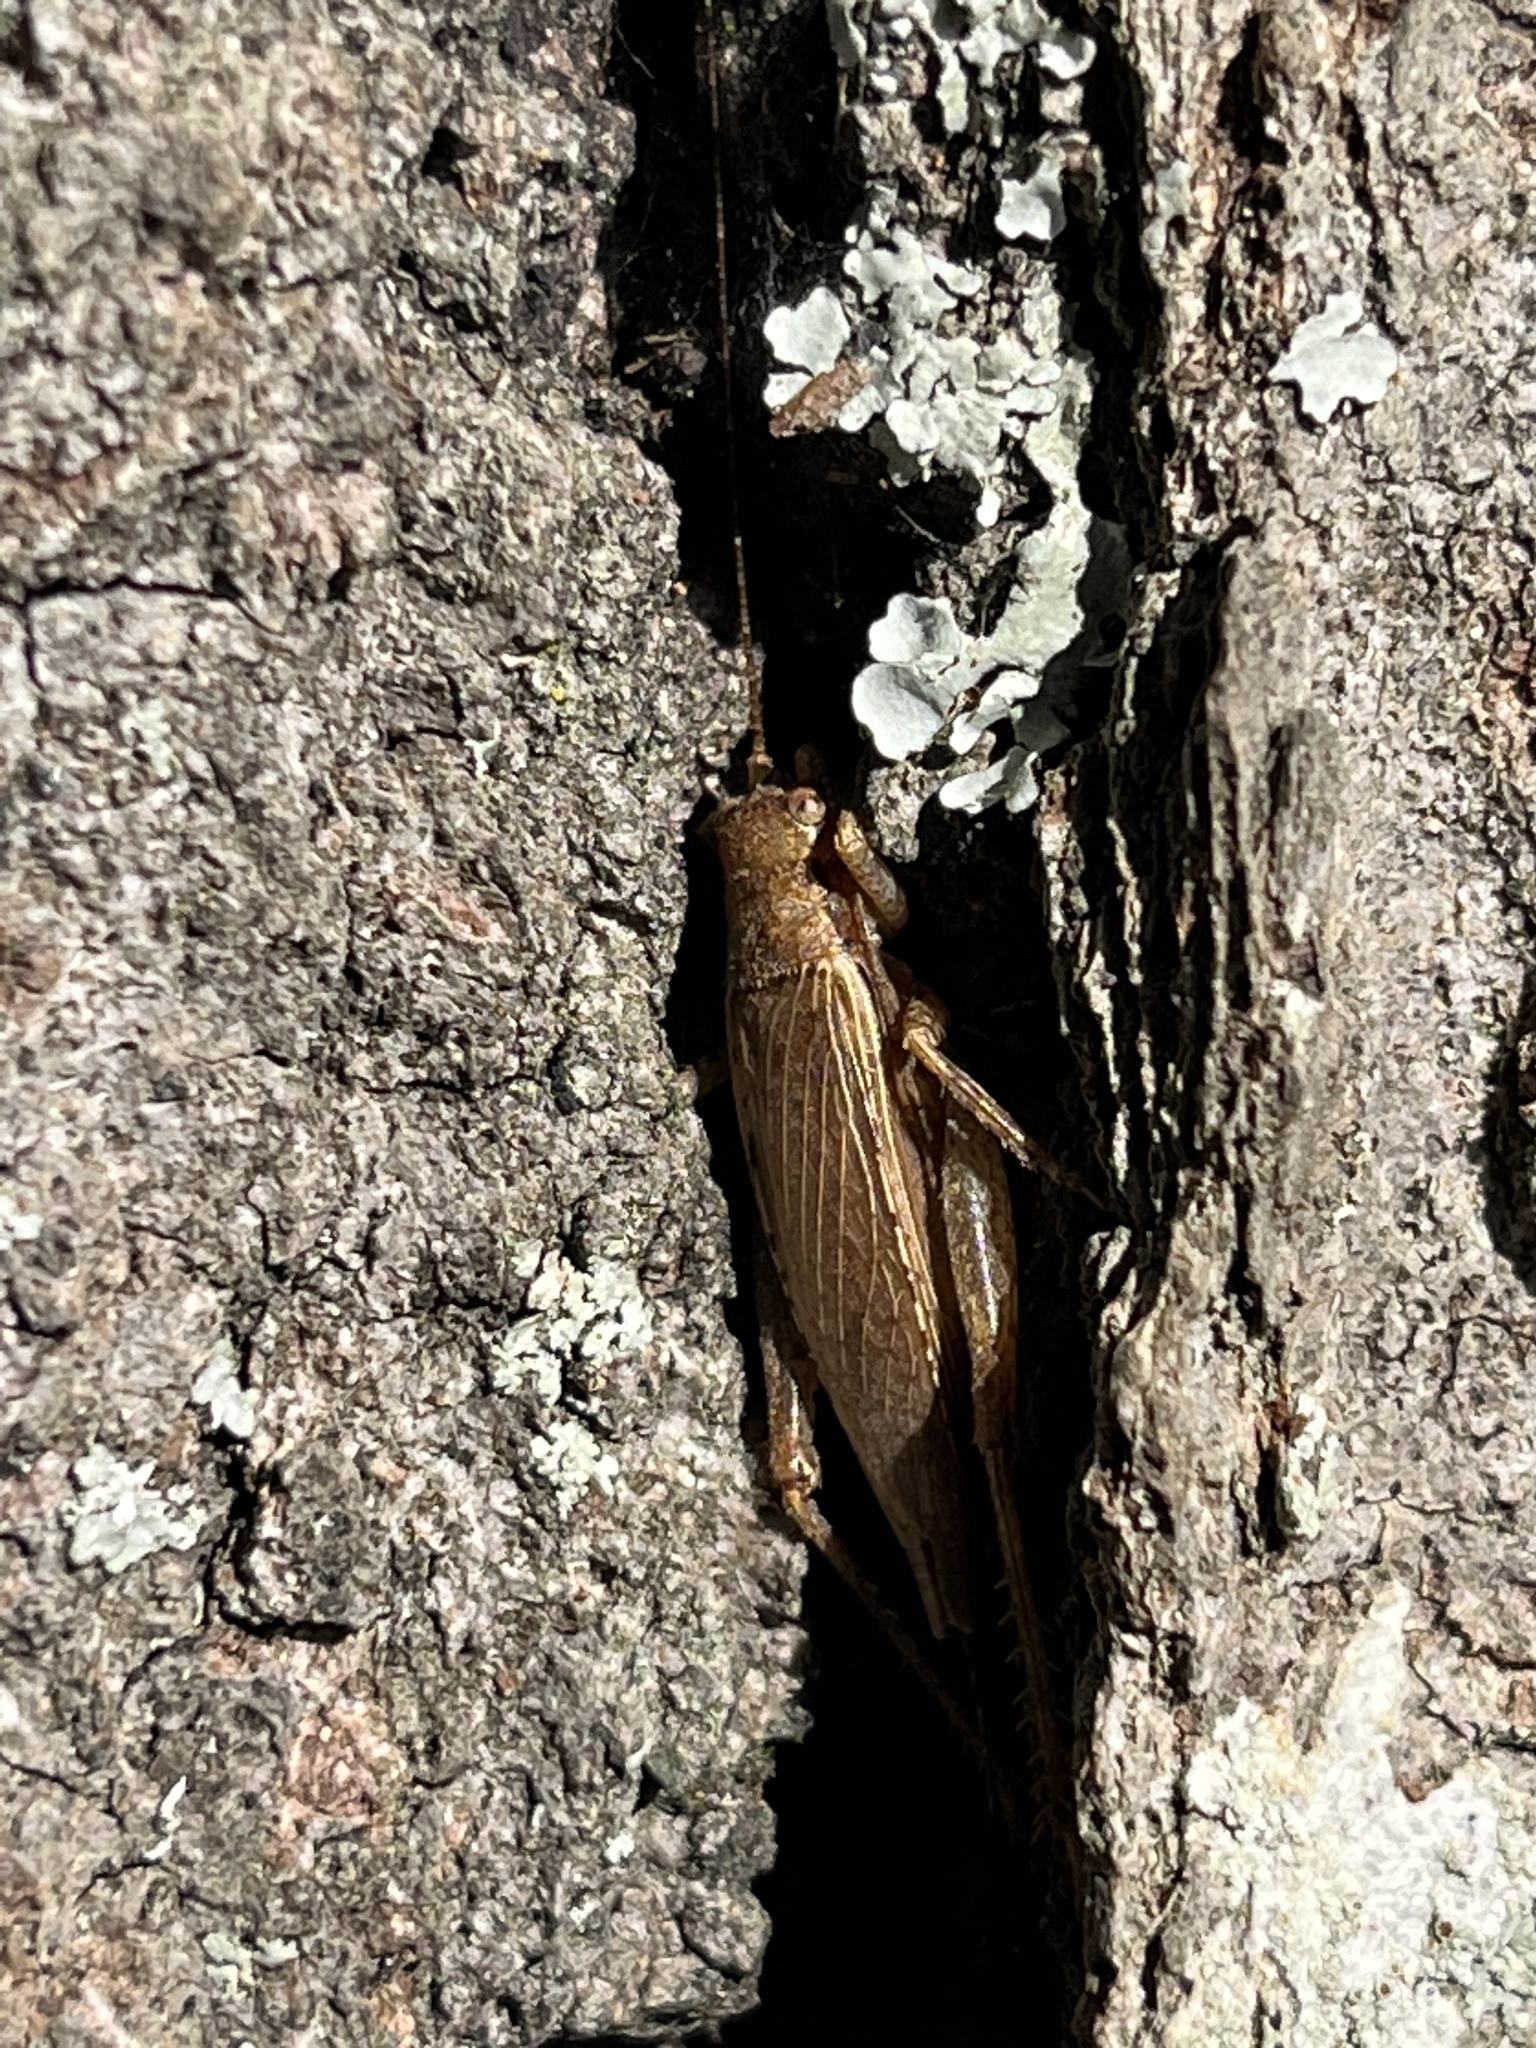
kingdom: Animalia
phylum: Arthropoda
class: Insecta
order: Orthoptera
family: Gryllidae
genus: Hapithus
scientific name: Hapithus saltator
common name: Jumping bush cricket
